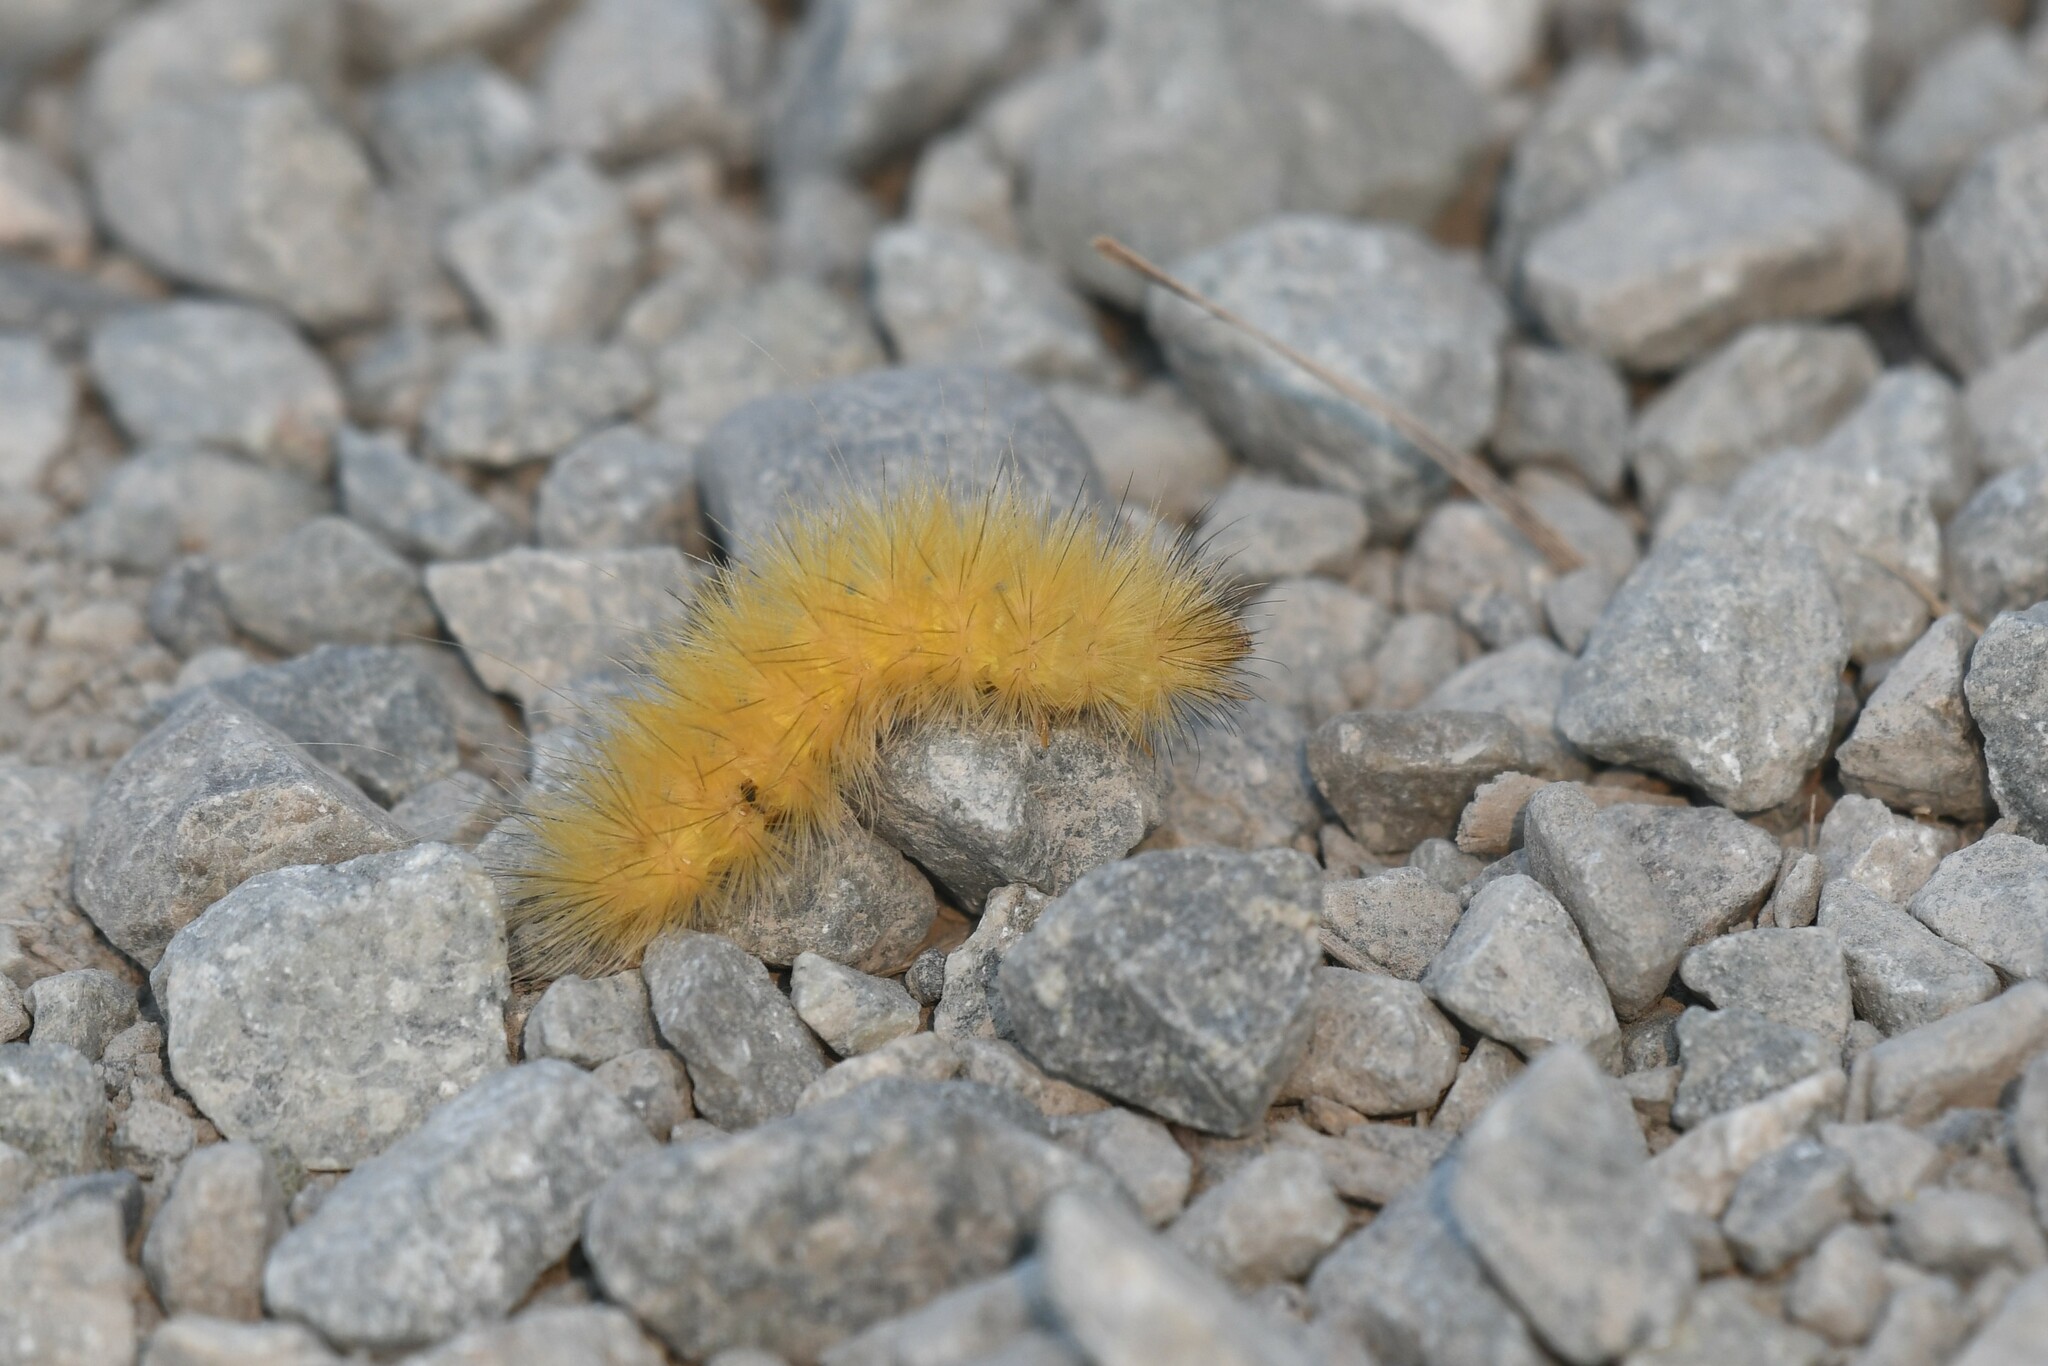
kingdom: Animalia
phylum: Arthropoda
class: Insecta
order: Lepidoptera
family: Erebidae
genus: Spilosoma
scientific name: Spilosoma virginica
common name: Virginia tiger moth
